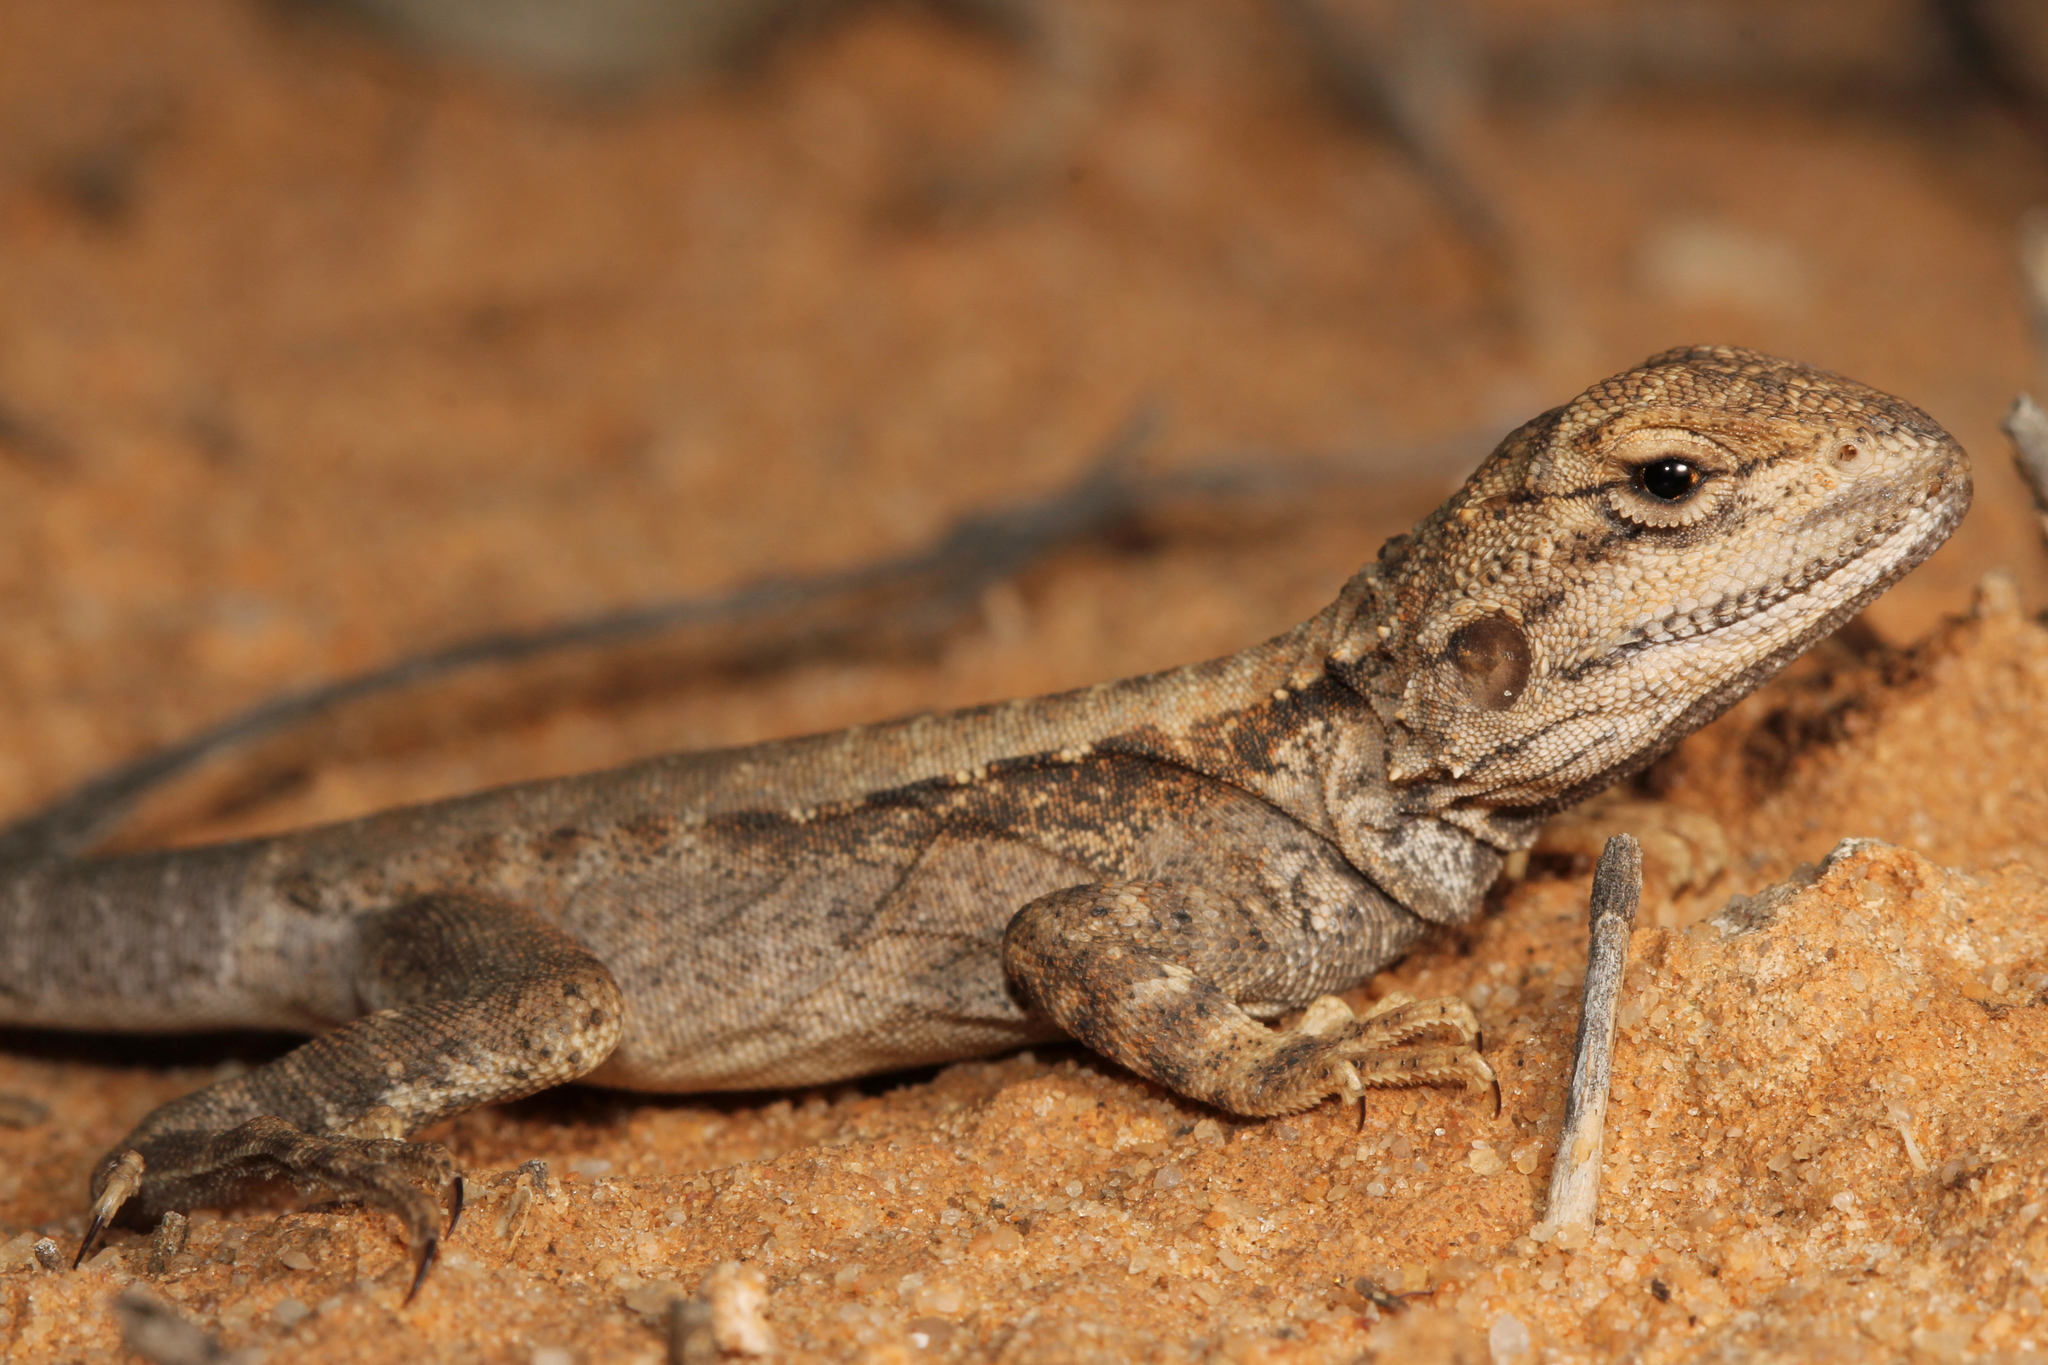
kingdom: Animalia
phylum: Chordata
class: Squamata
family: Agamidae
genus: Ctenophorus
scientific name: Ctenophorus cristatus
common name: Crested dragon
